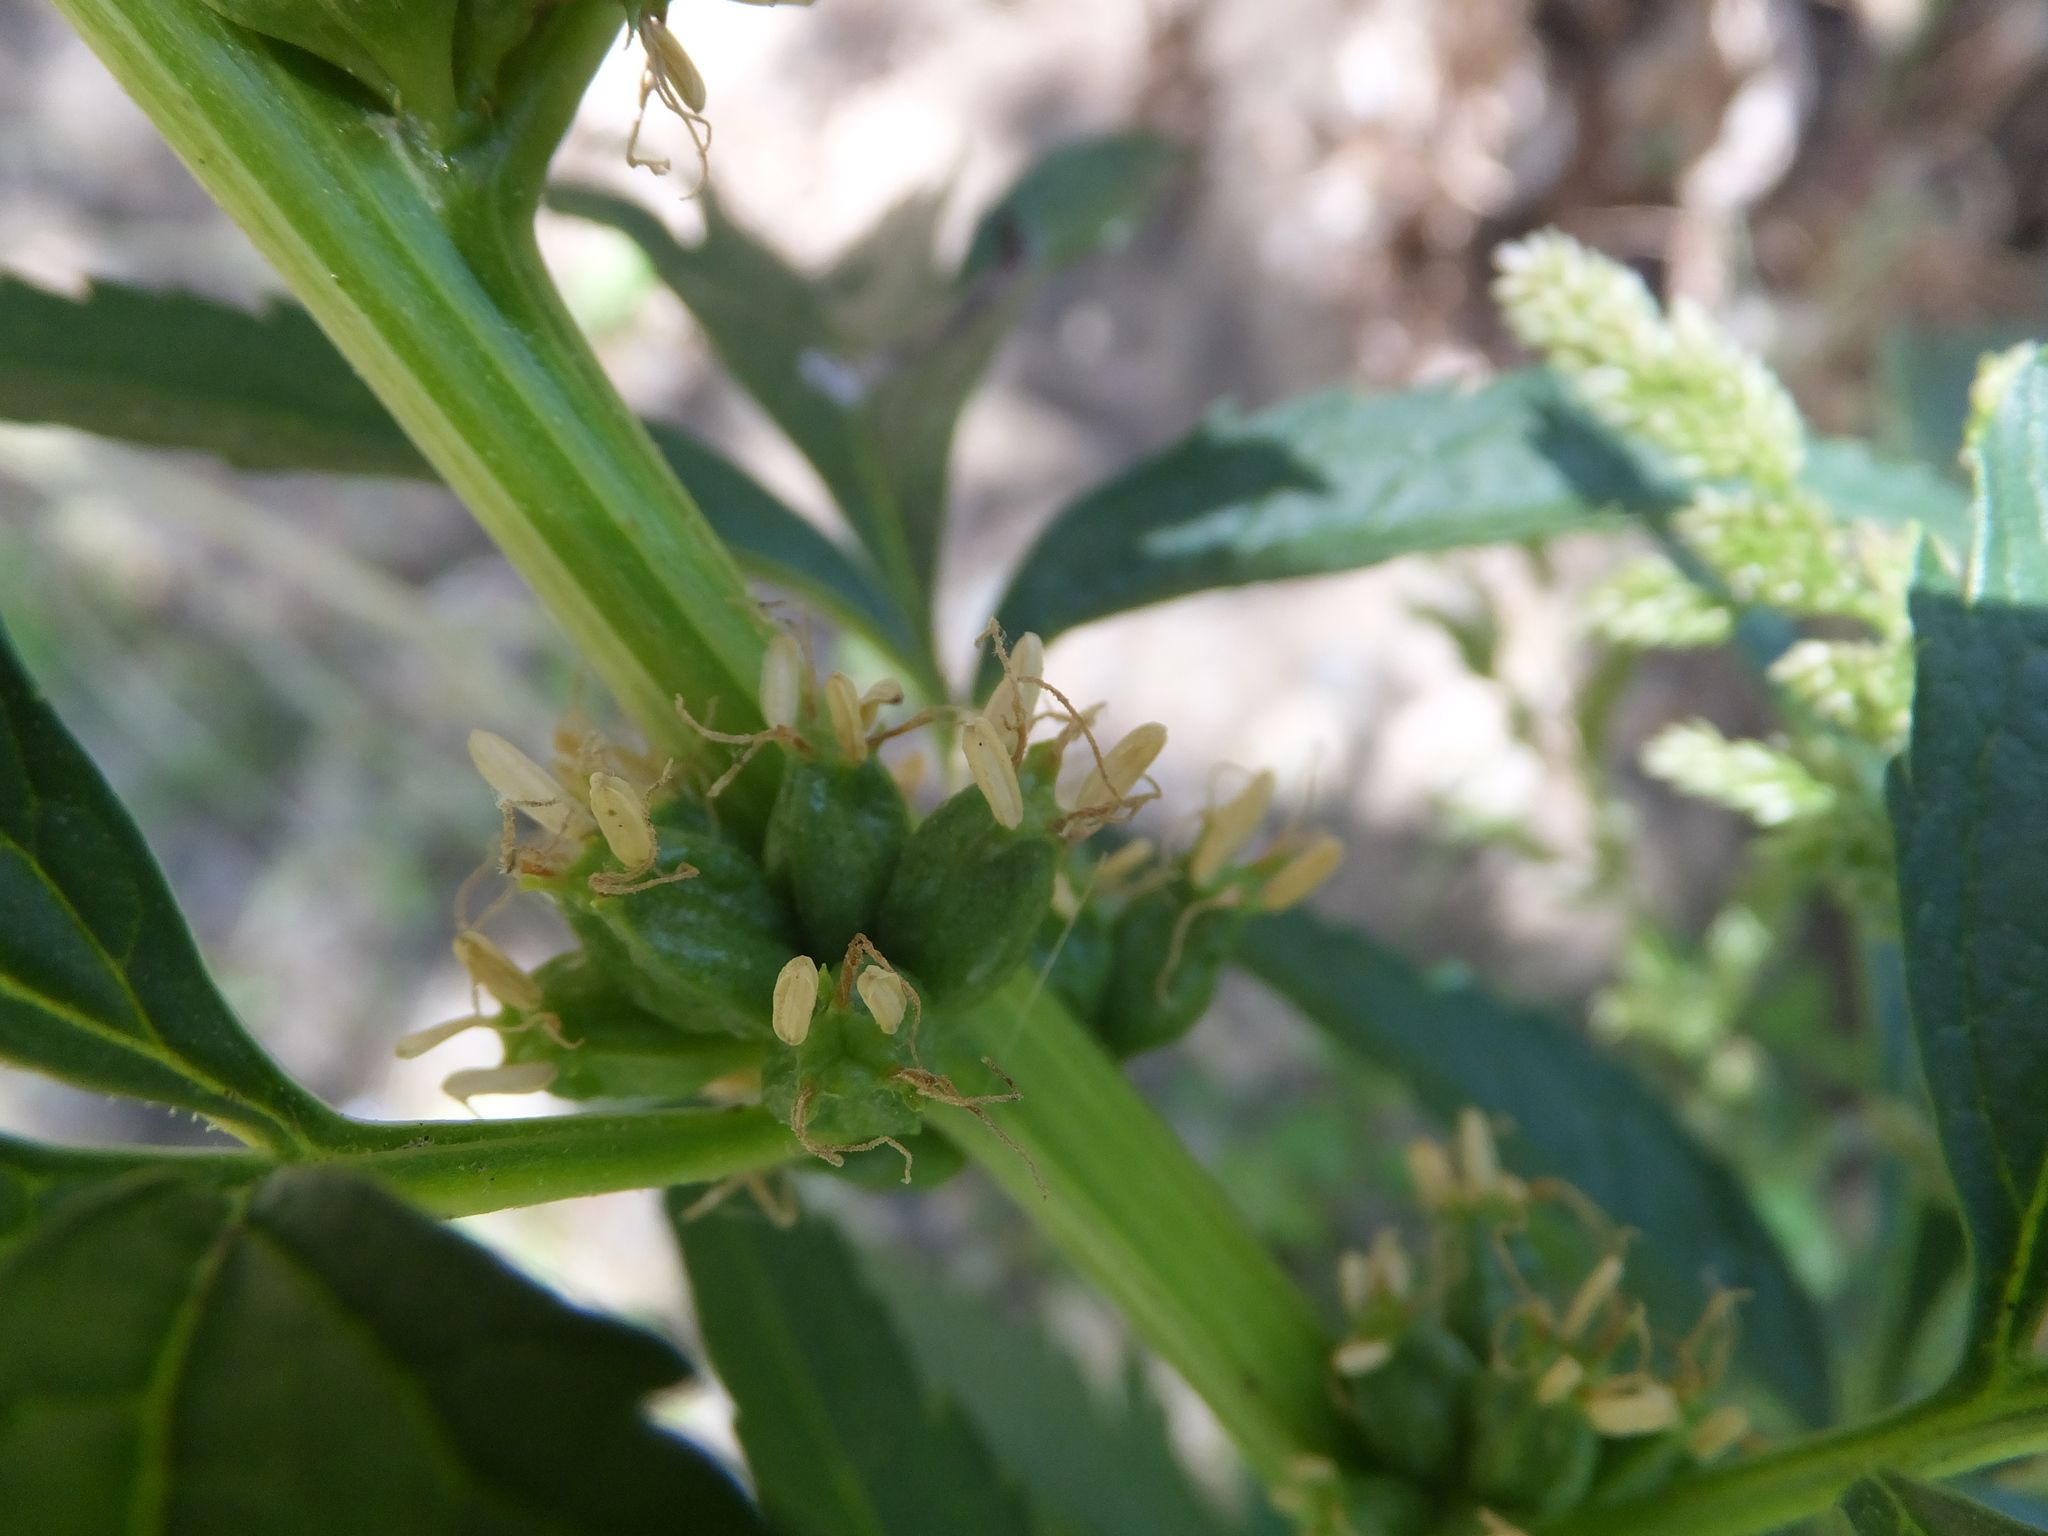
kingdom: Plantae
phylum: Tracheophyta
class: Magnoliopsida
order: Cucurbitales
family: Datiscaceae
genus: Datisca
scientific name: Datisca glomerata
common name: Durango-root
